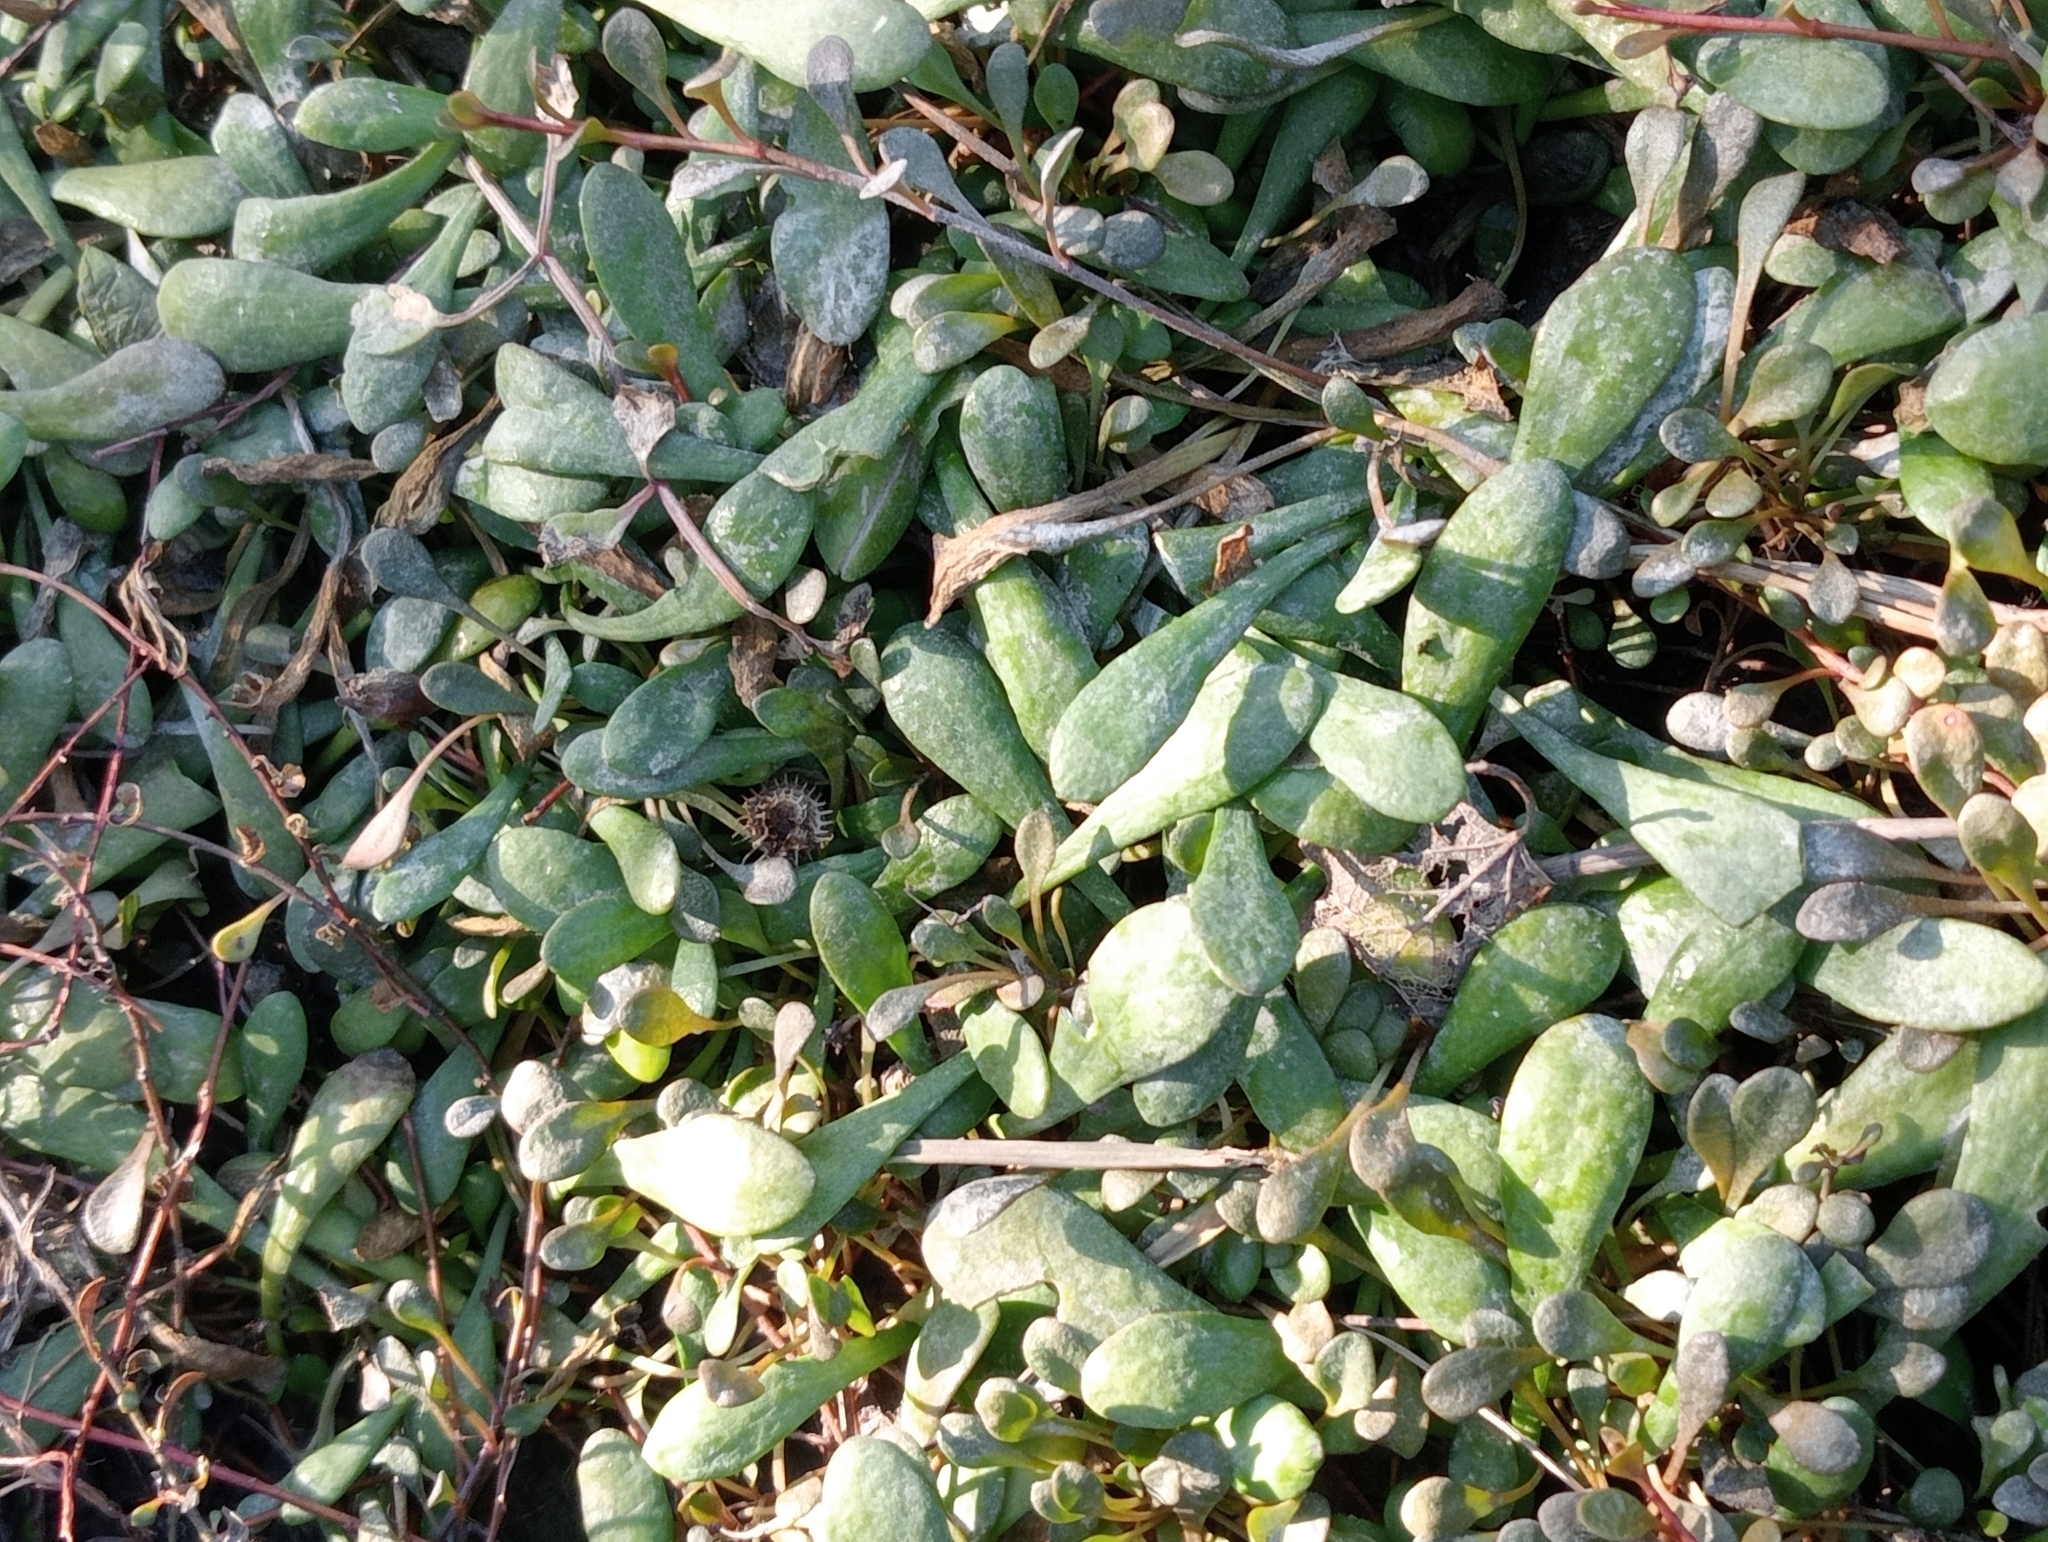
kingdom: Plantae
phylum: Tracheophyta
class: Magnoliopsida
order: Asterales
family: Goodeniaceae
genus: Goodenia
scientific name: Goodenia radicans
